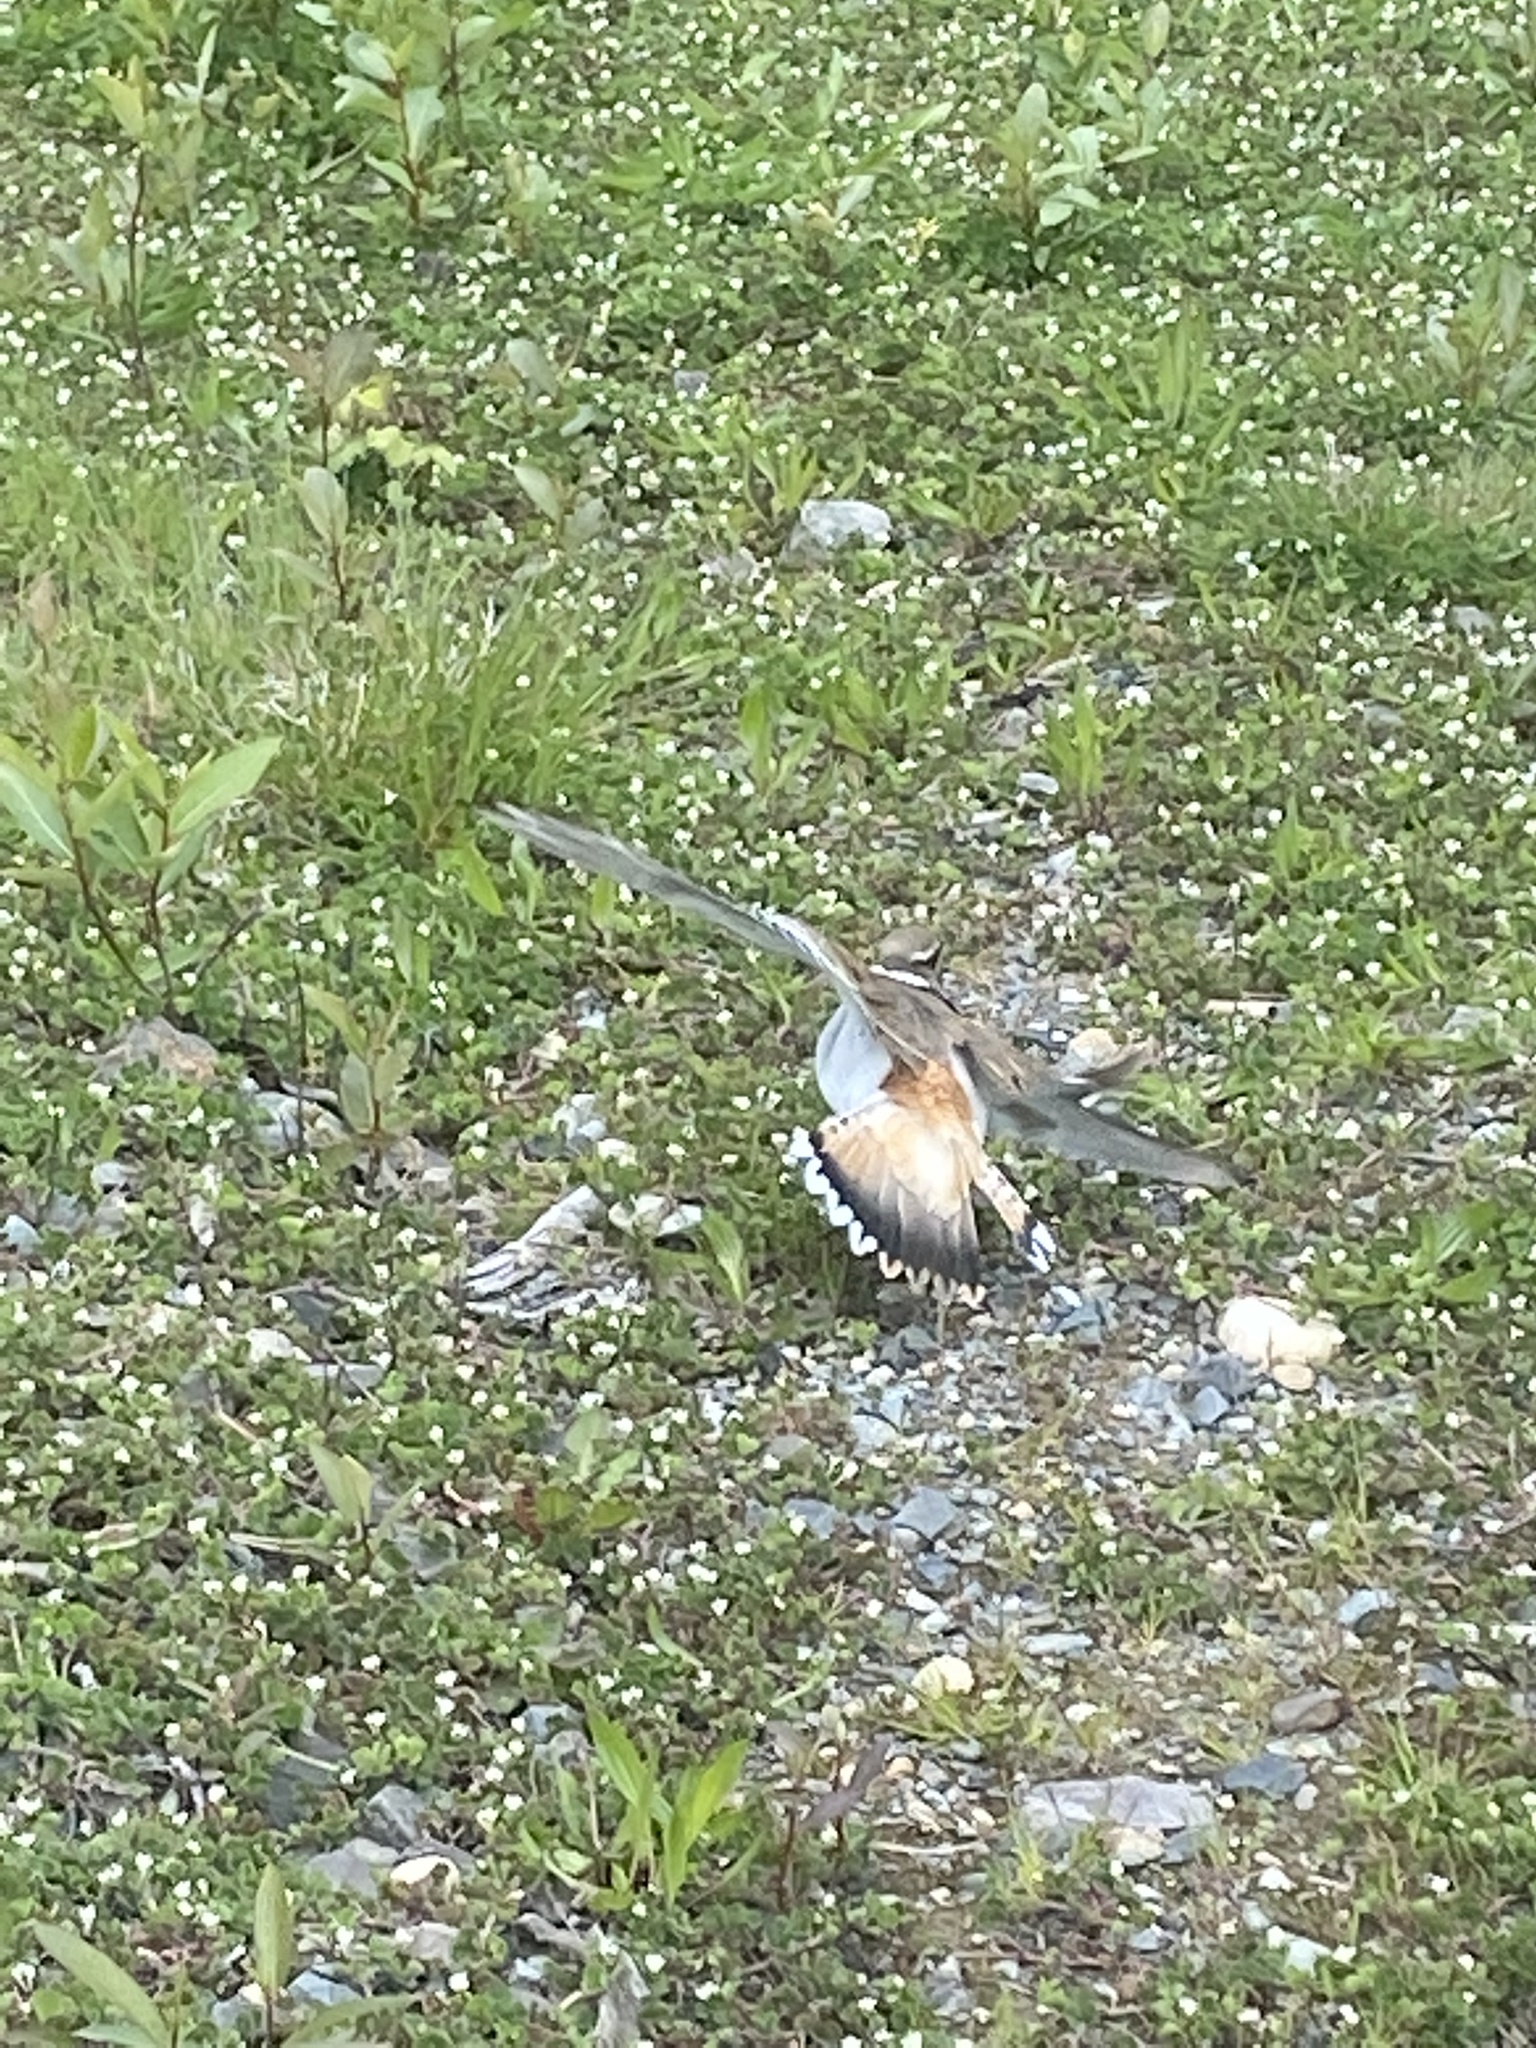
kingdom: Animalia
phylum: Chordata
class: Aves
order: Charadriiformes
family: Charadriidae
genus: Charadrius
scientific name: Charadrius vociferus
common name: Killdeer
